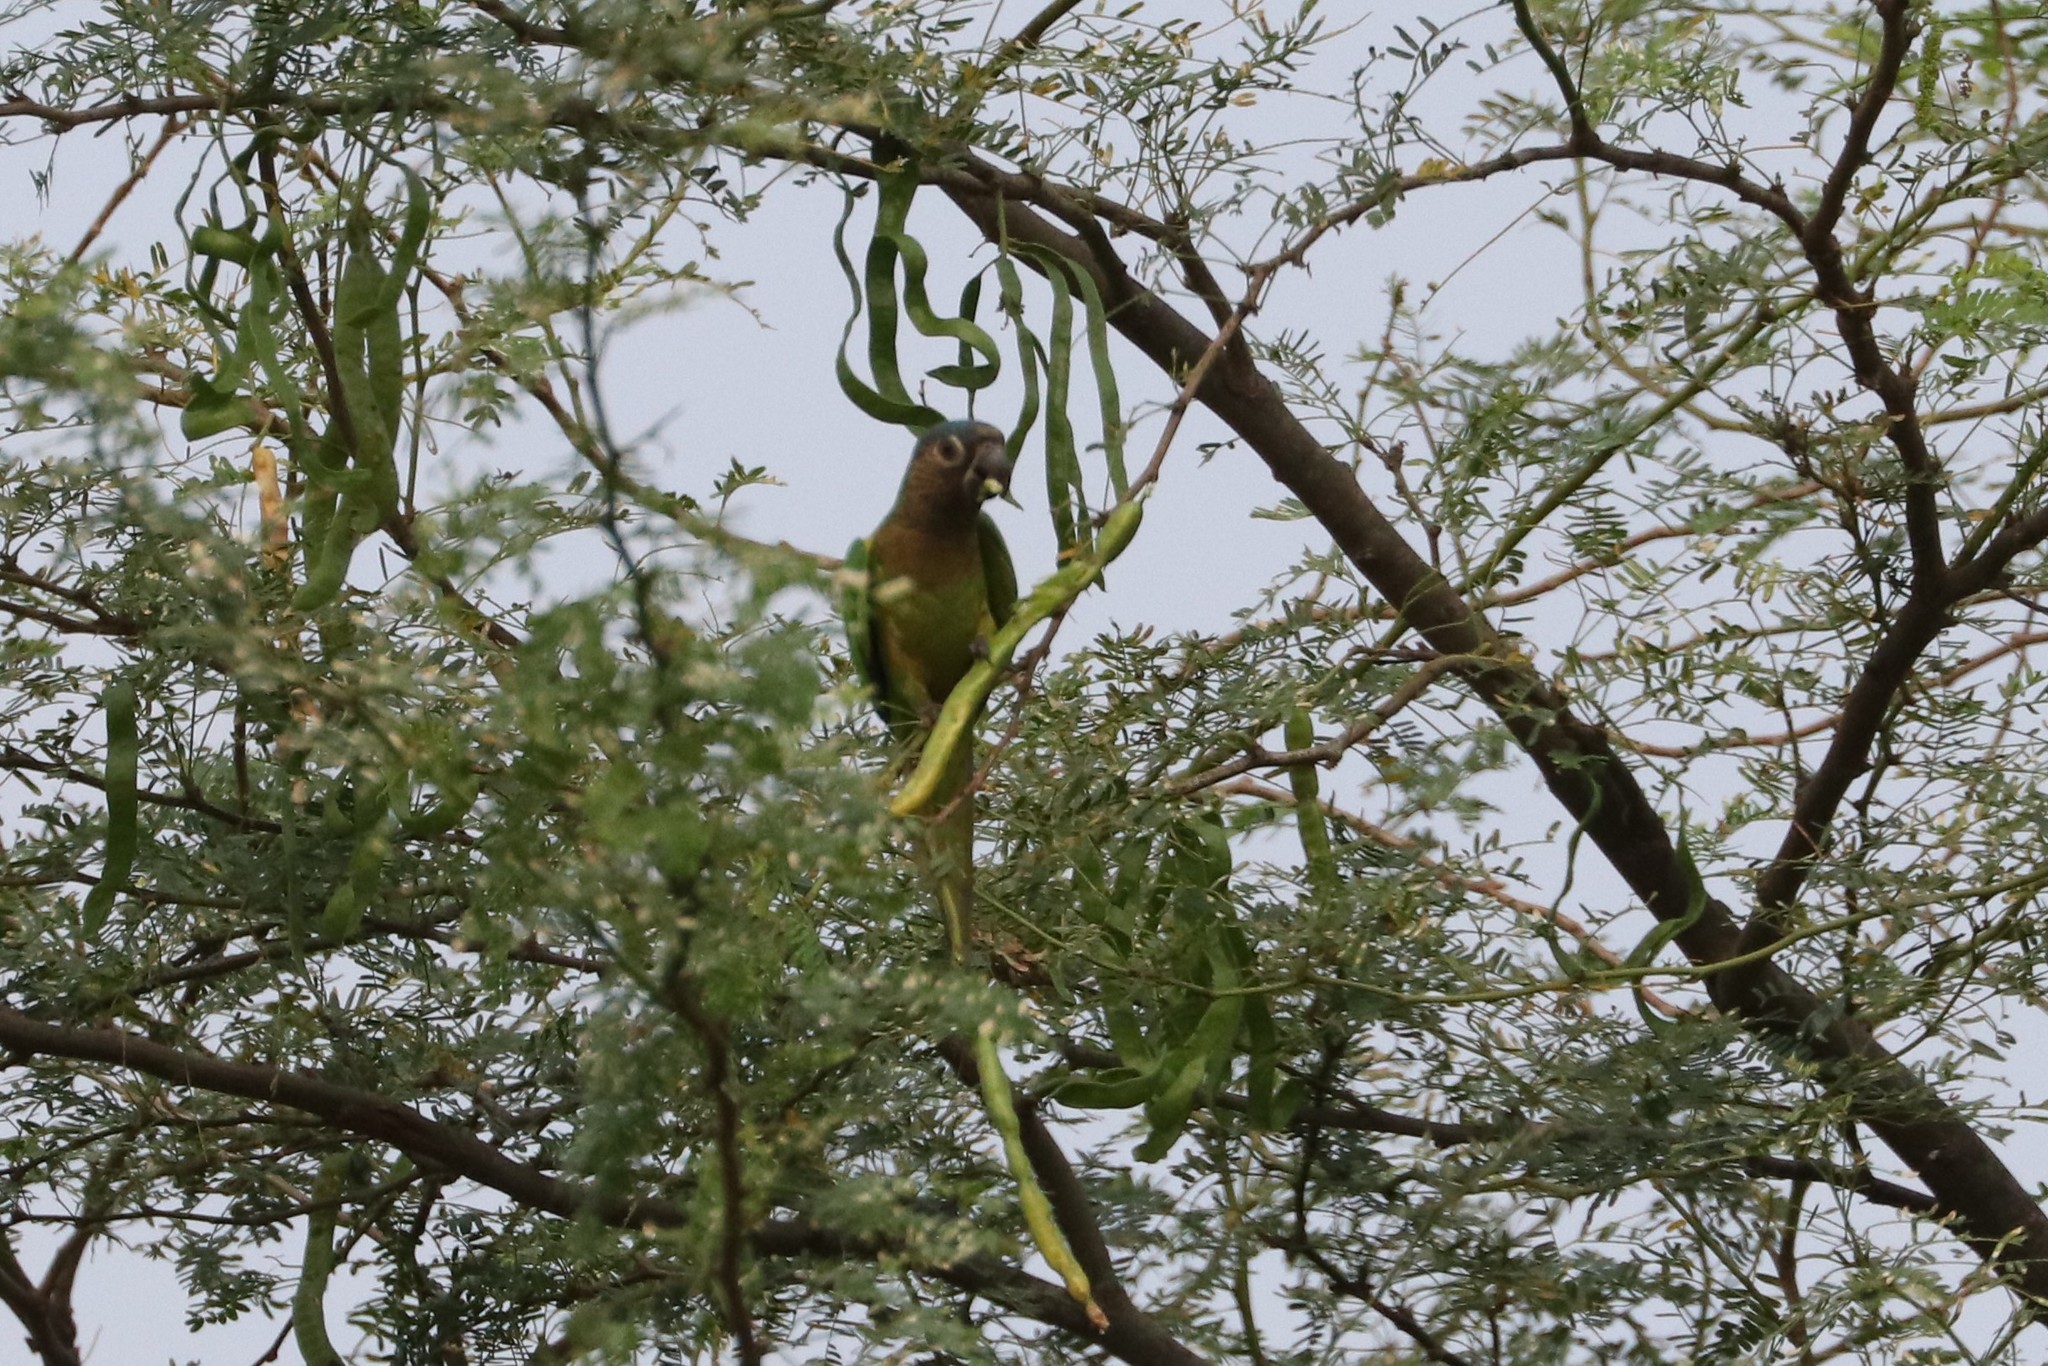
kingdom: Animalia
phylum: Chordata
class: Aves
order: Psittaciformes
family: Psittacidae
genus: Aratinga
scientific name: Aratinga pertinax
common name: Brown-throated parakeet
